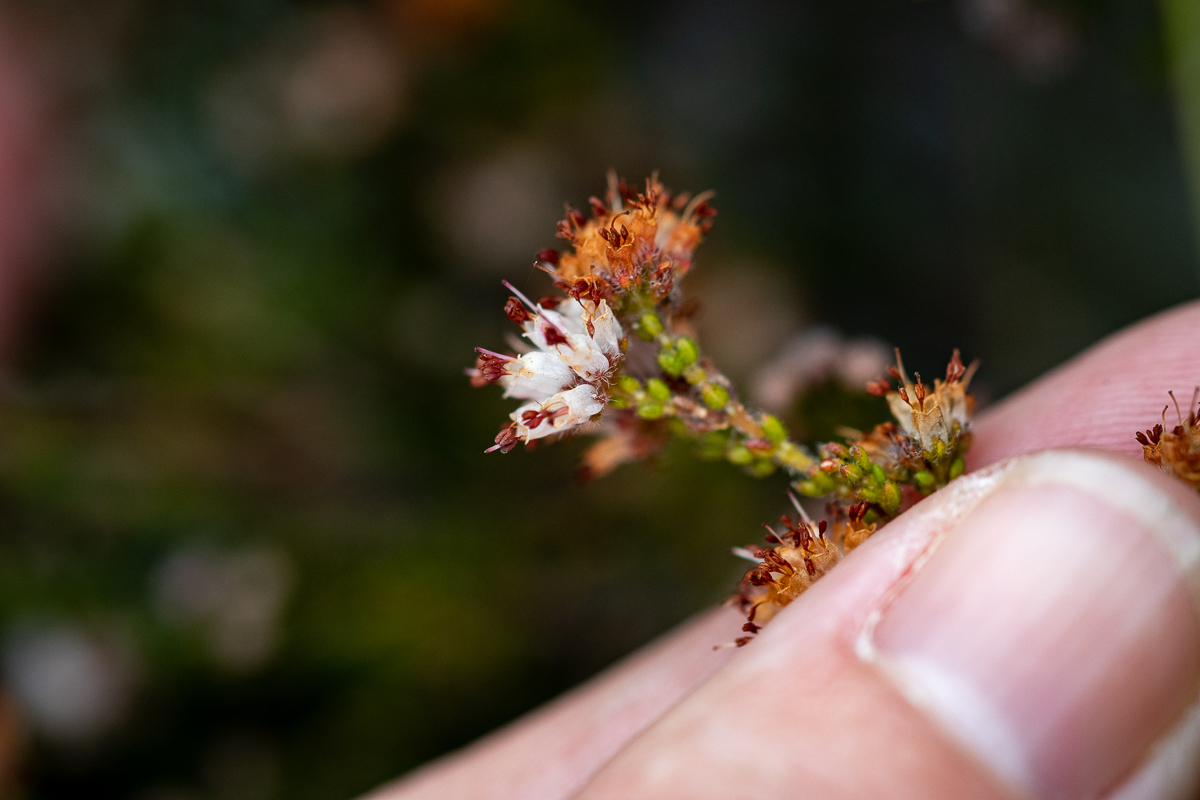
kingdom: Plantae
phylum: Tracheophyta
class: Magnoliopsida
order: Ericales
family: Ericaceae
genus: Erica
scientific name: Erica ericoides
